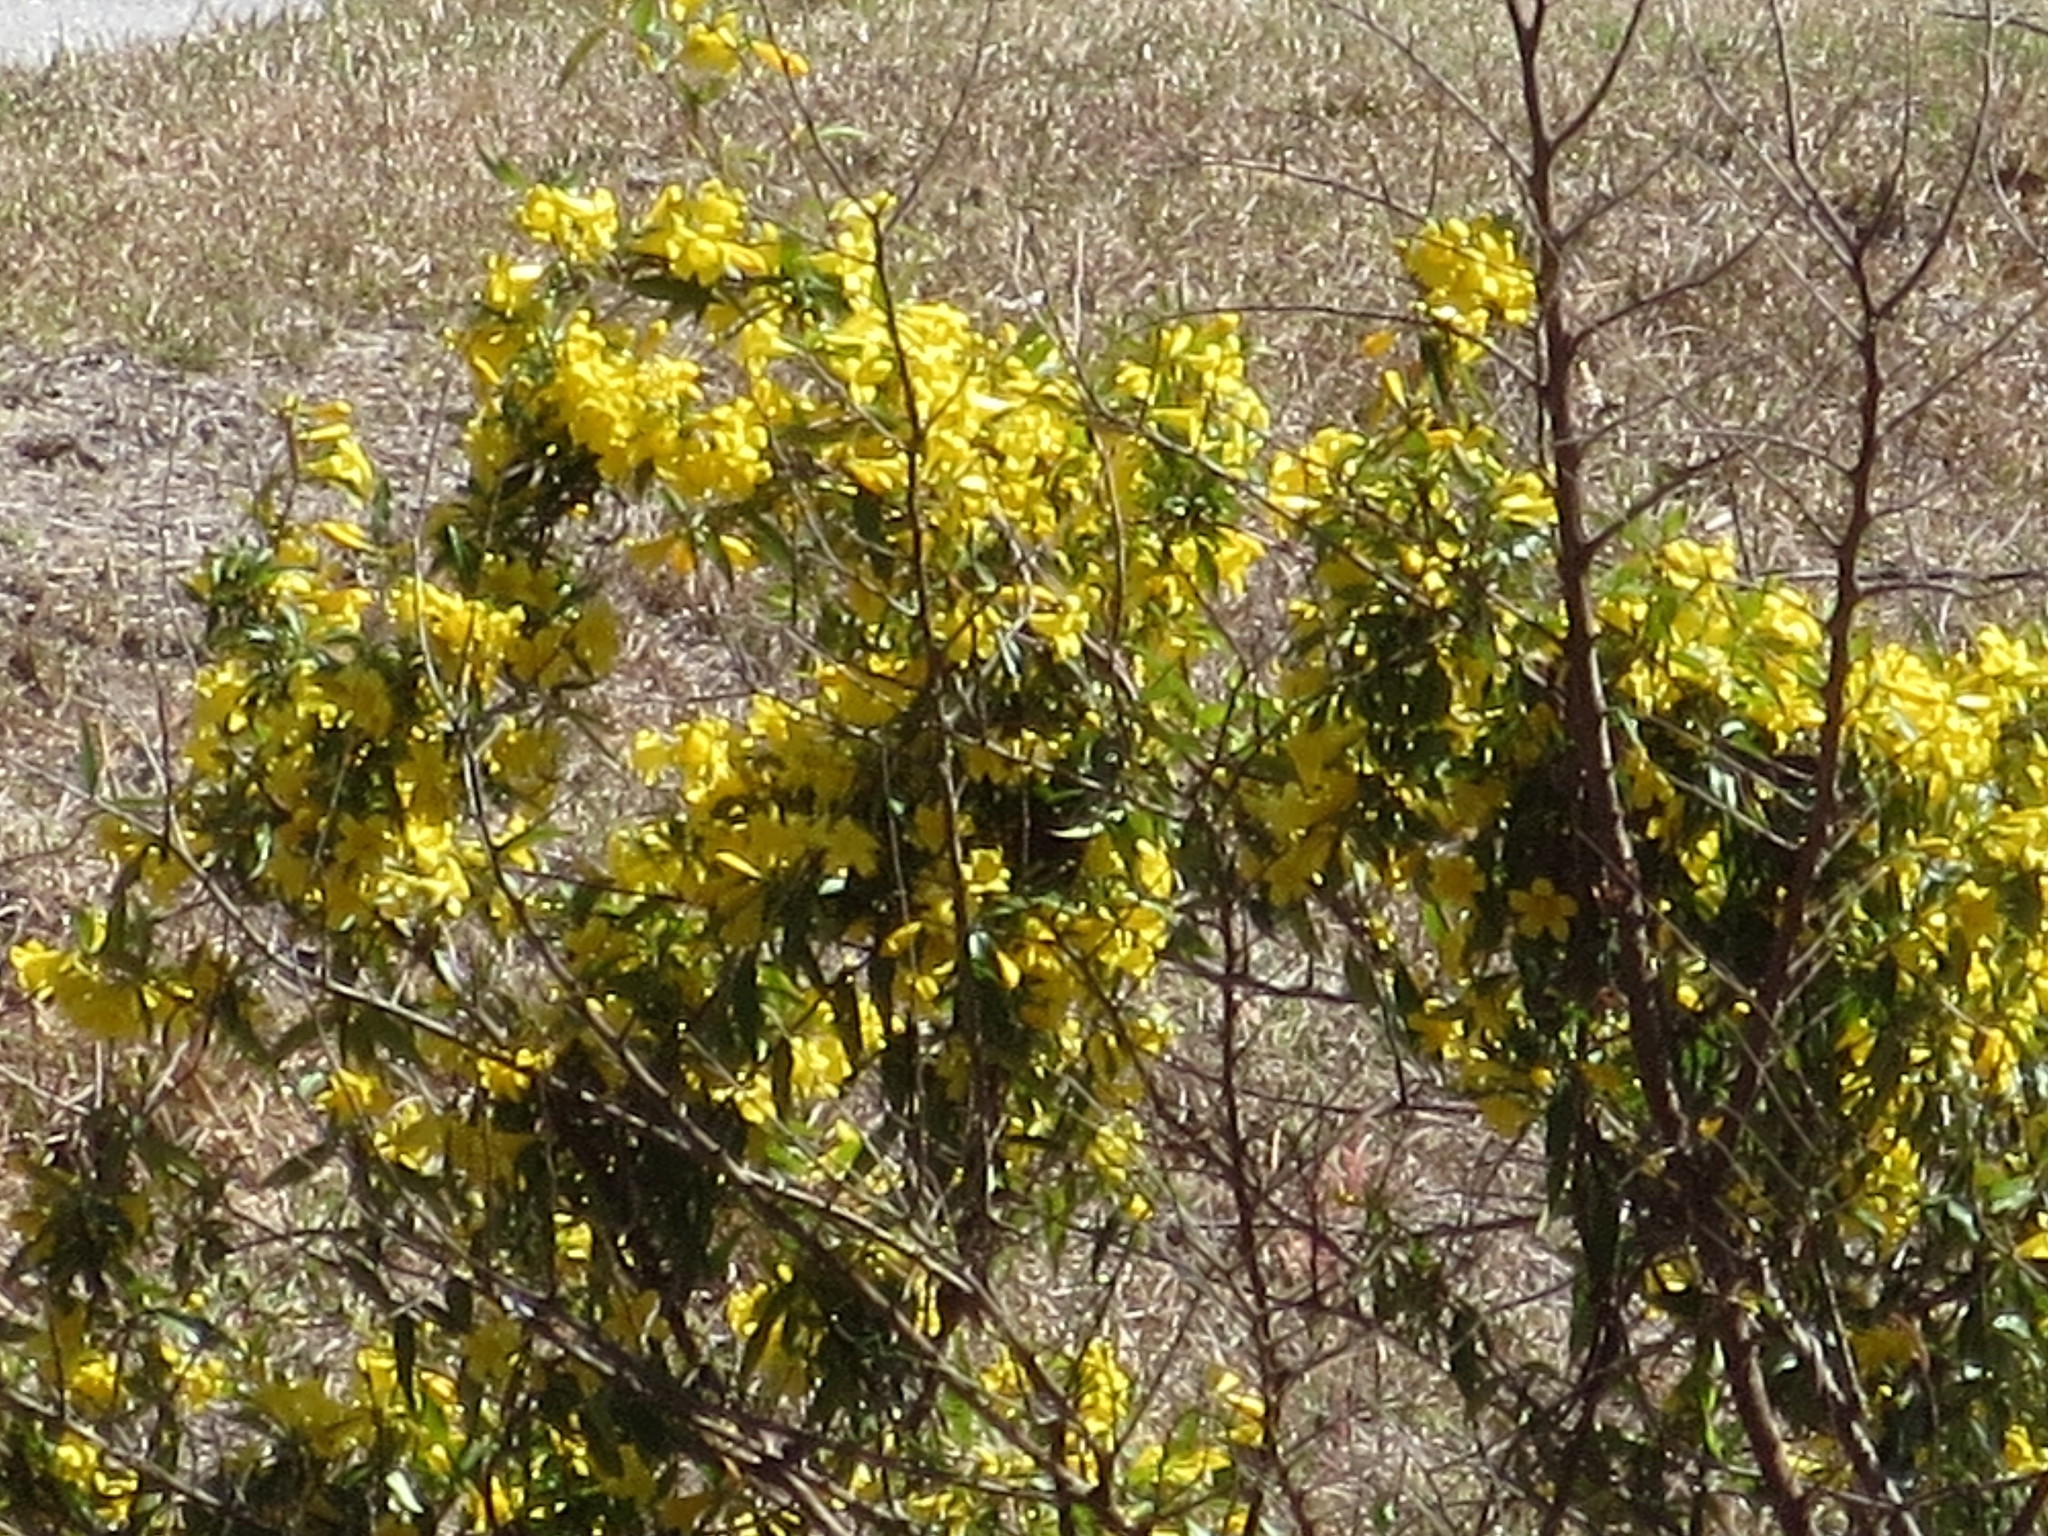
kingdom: Plantae
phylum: Tracheophyta
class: Magnoliopsida
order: Gentianales
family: Gelsemiaceae
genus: Gelsemium
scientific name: Gelsemium sempervirens
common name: Carolina-jasmine
